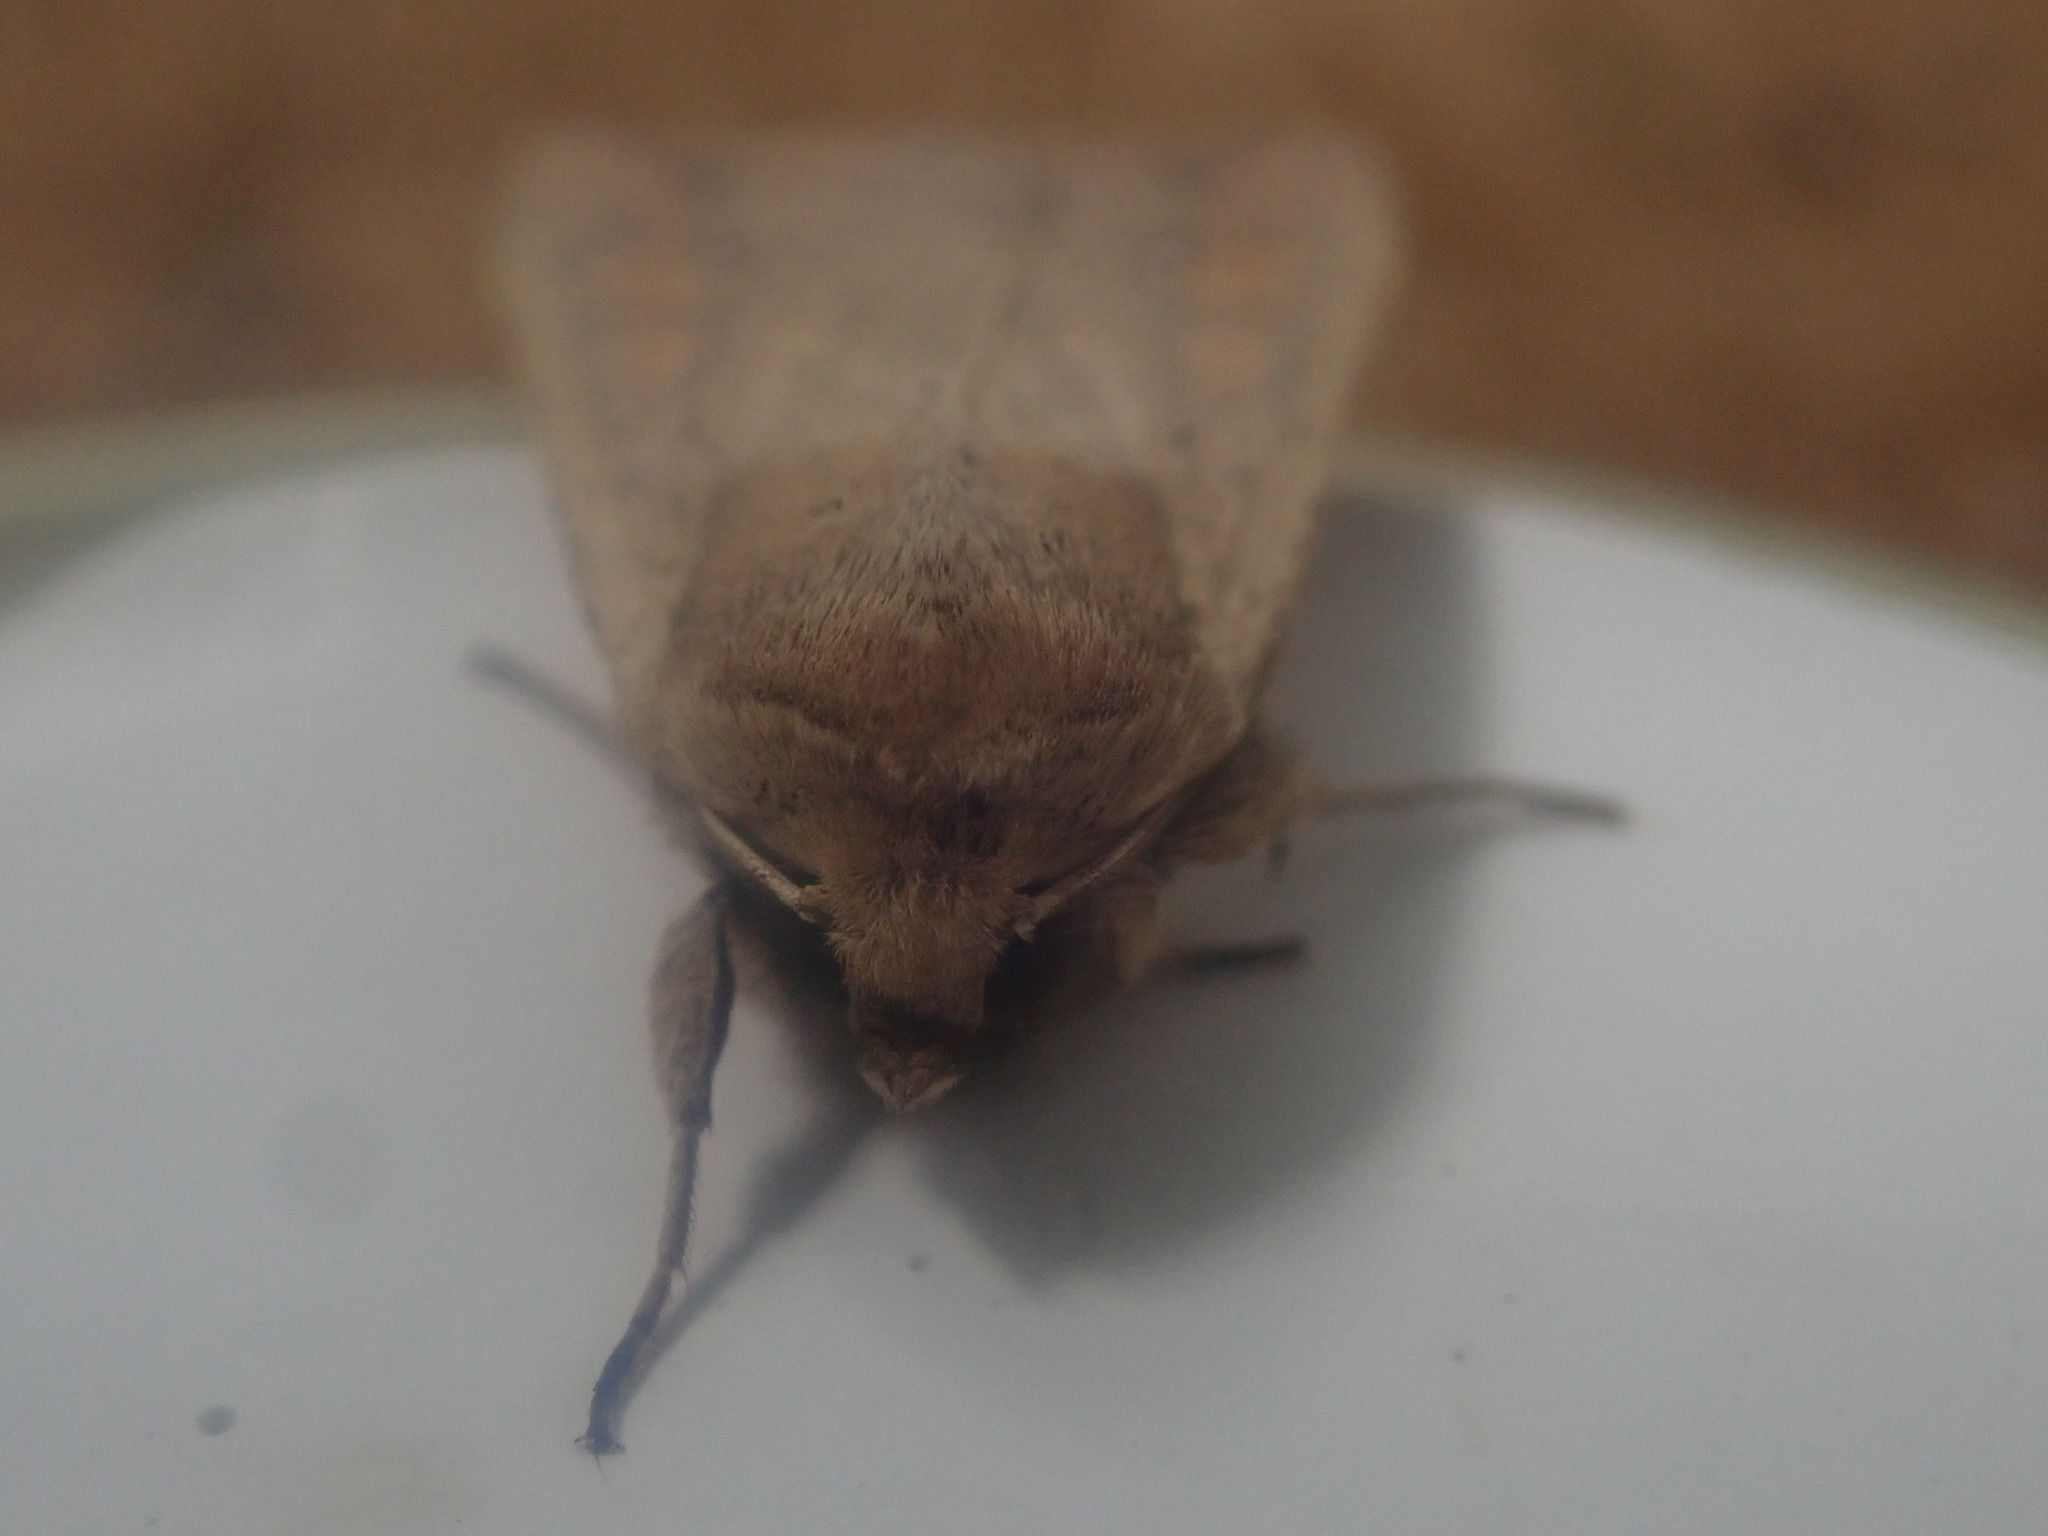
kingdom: Animalia
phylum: Arthropoda
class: Insecta
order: Lepidoptera
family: Noctuidae
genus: Mythimna
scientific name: Mythimna unipuncta
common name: White-speck
